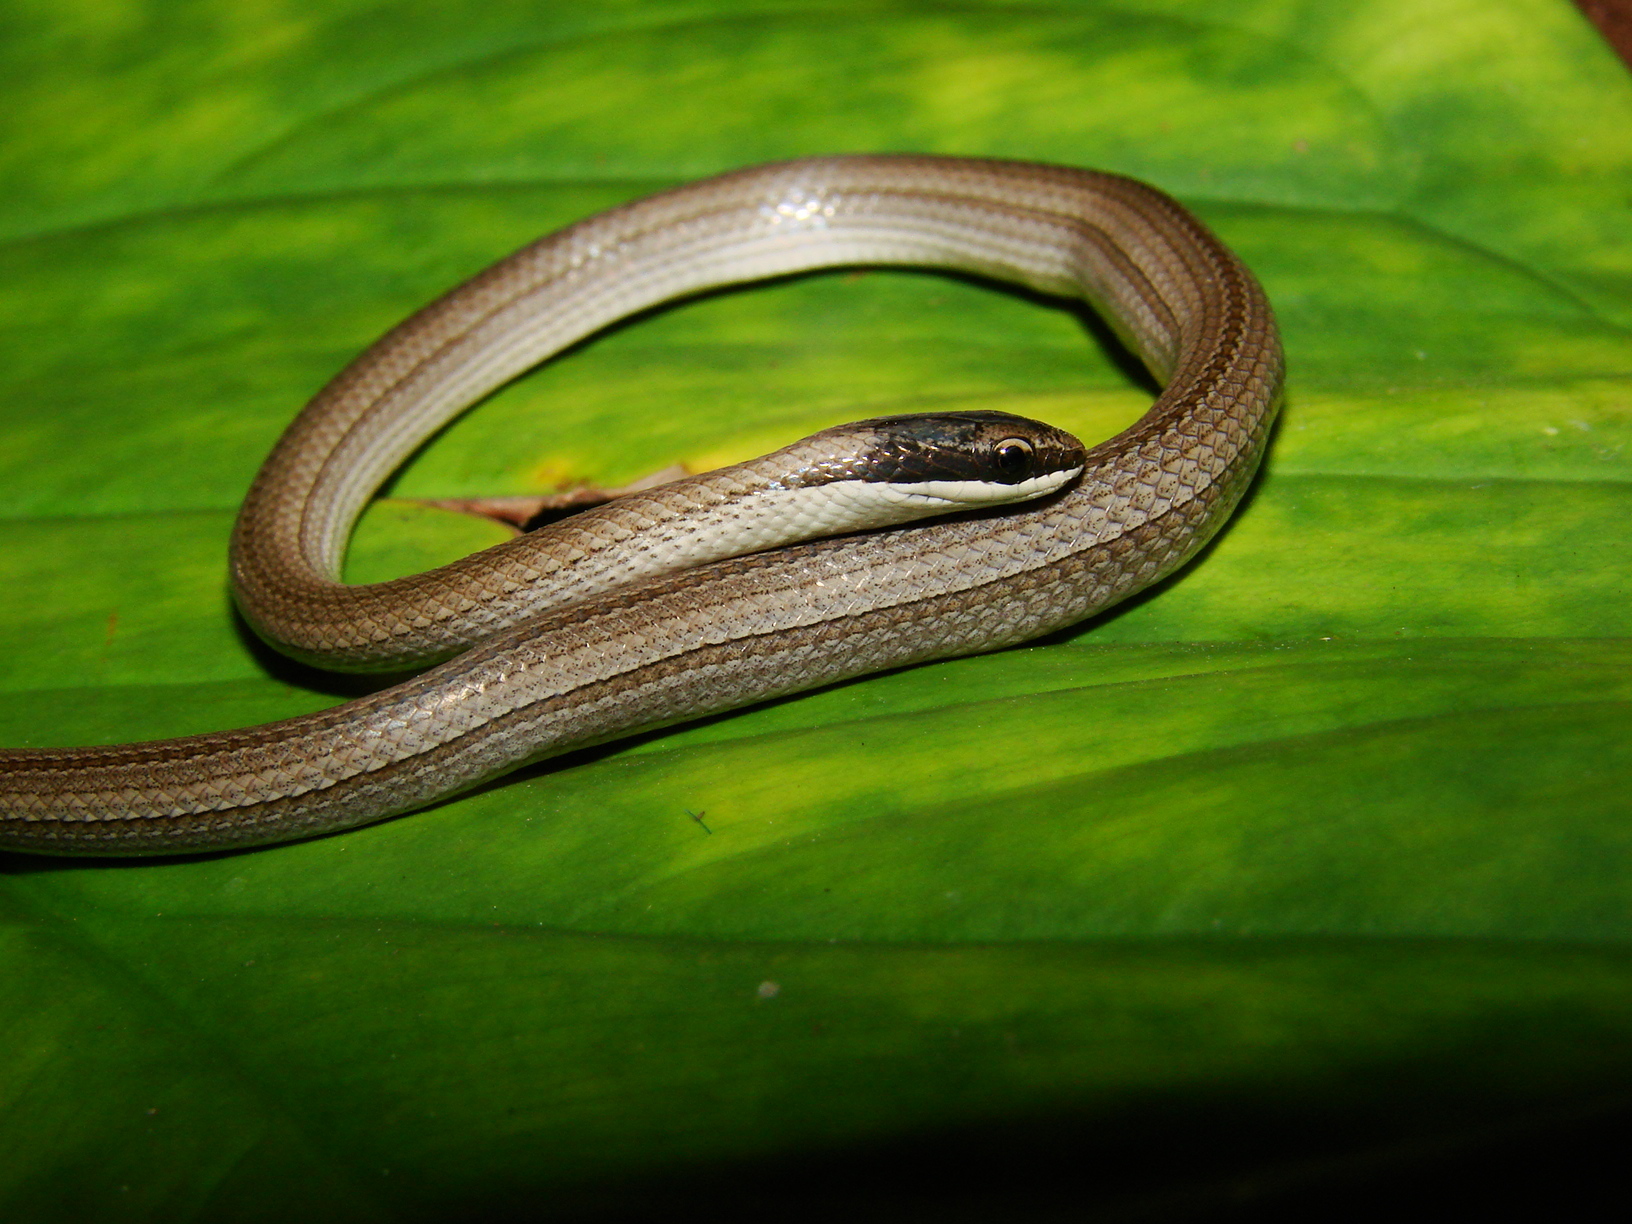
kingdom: Animalia
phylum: Chordata
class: Squamata
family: Colubridae
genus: Psomophis
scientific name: Psomophis joberti
